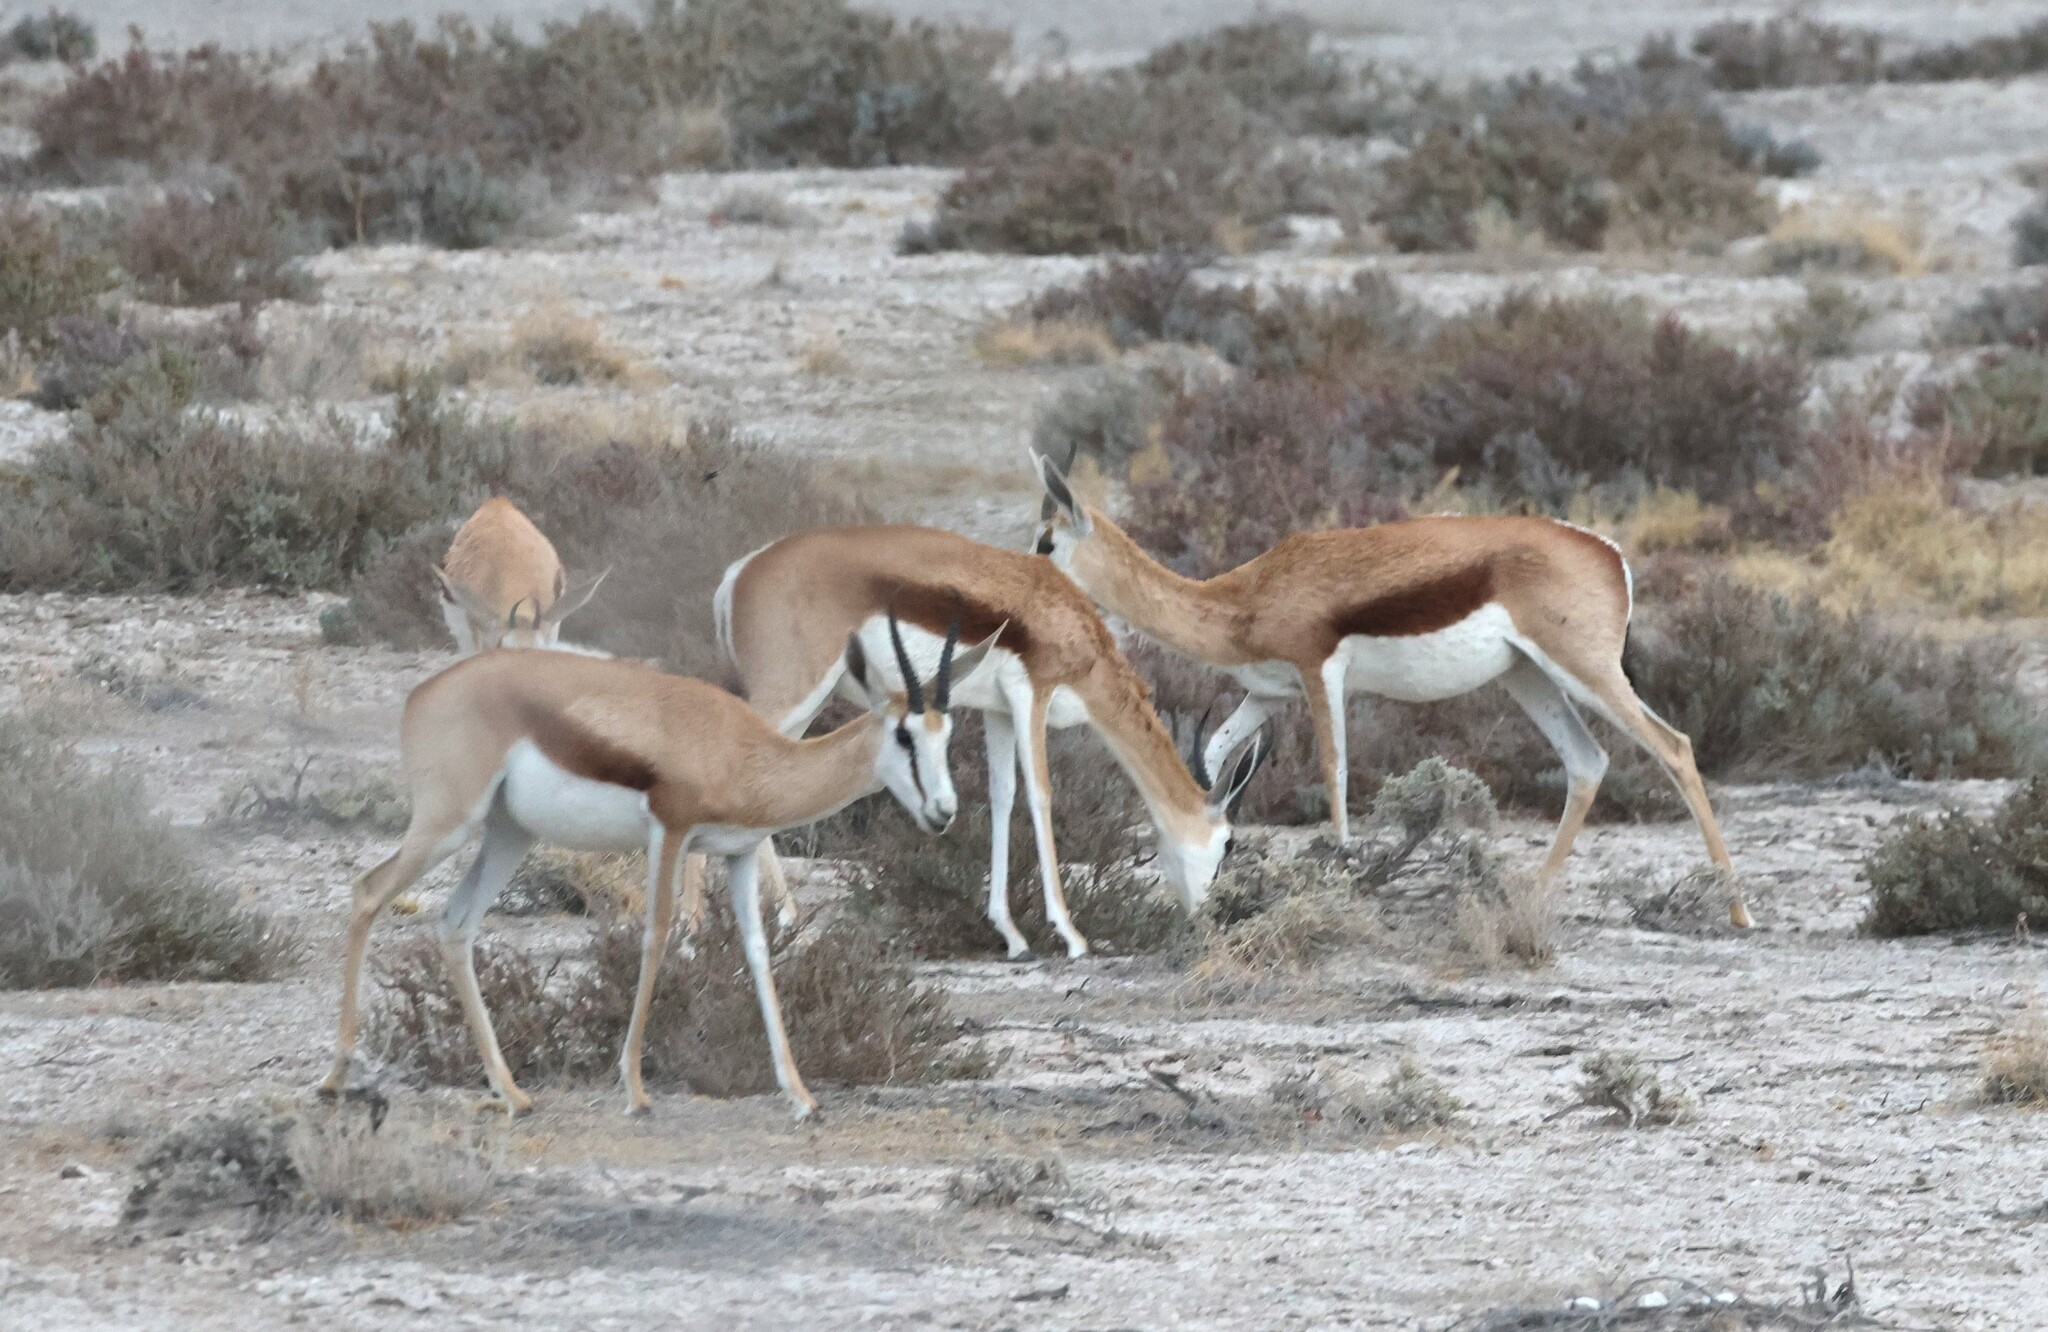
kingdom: Animalia
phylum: Chordata
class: Mammalia
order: Artiodactyla
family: Bovidae
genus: Antidorcas
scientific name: Antidorcas marsupialis
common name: Springbok
